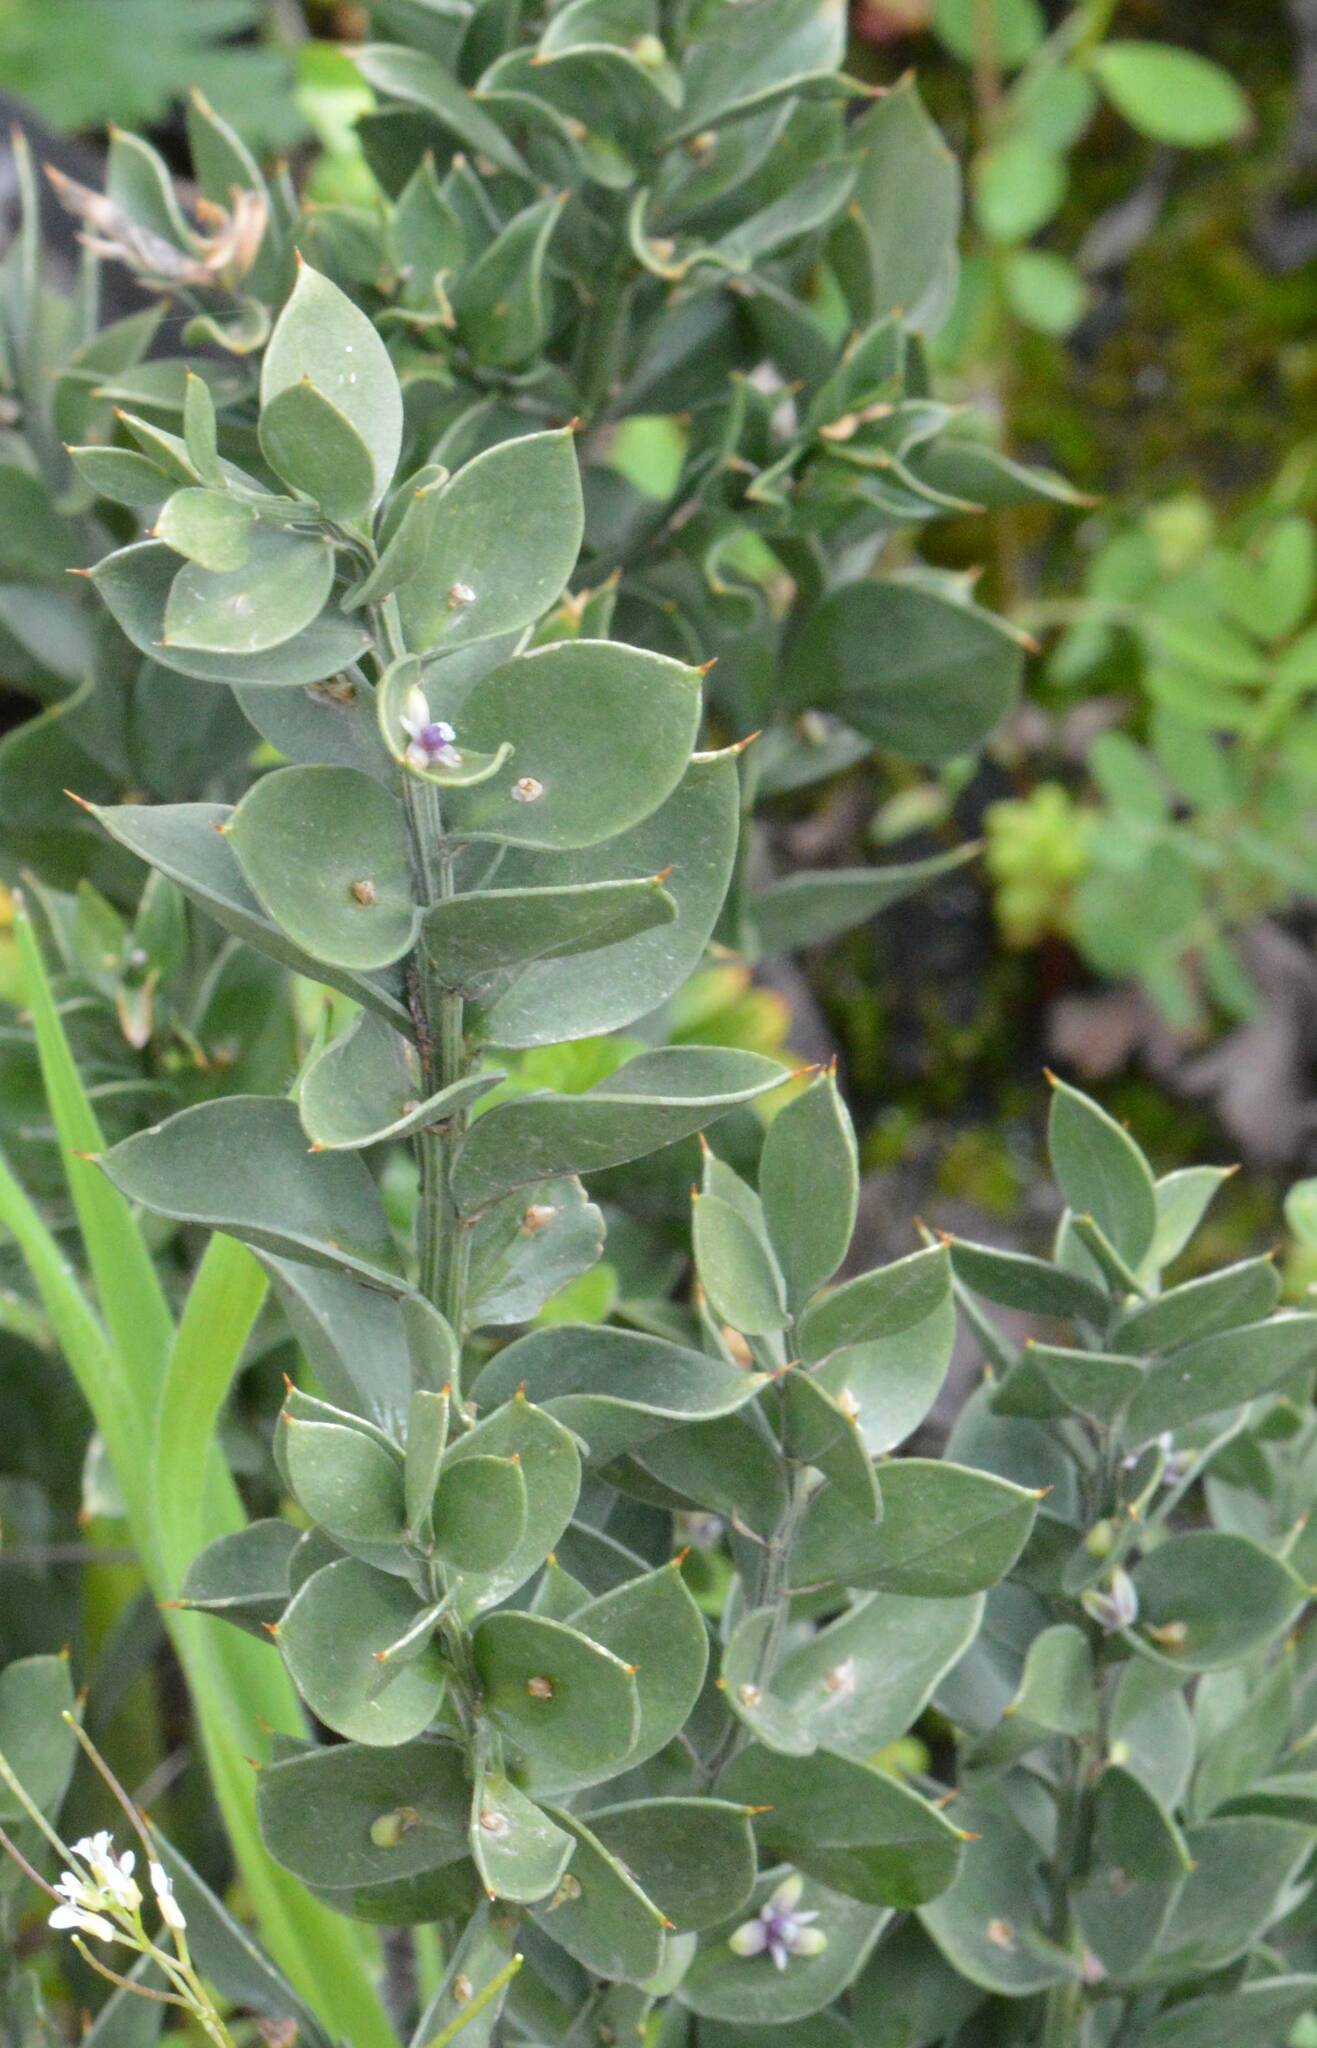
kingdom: Plantae
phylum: Tracheophyta
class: Liliopsida
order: Asparagales
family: Asparagaceae
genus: Ruscus
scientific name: Ruscus aculeatus
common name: Butcher's-broom
